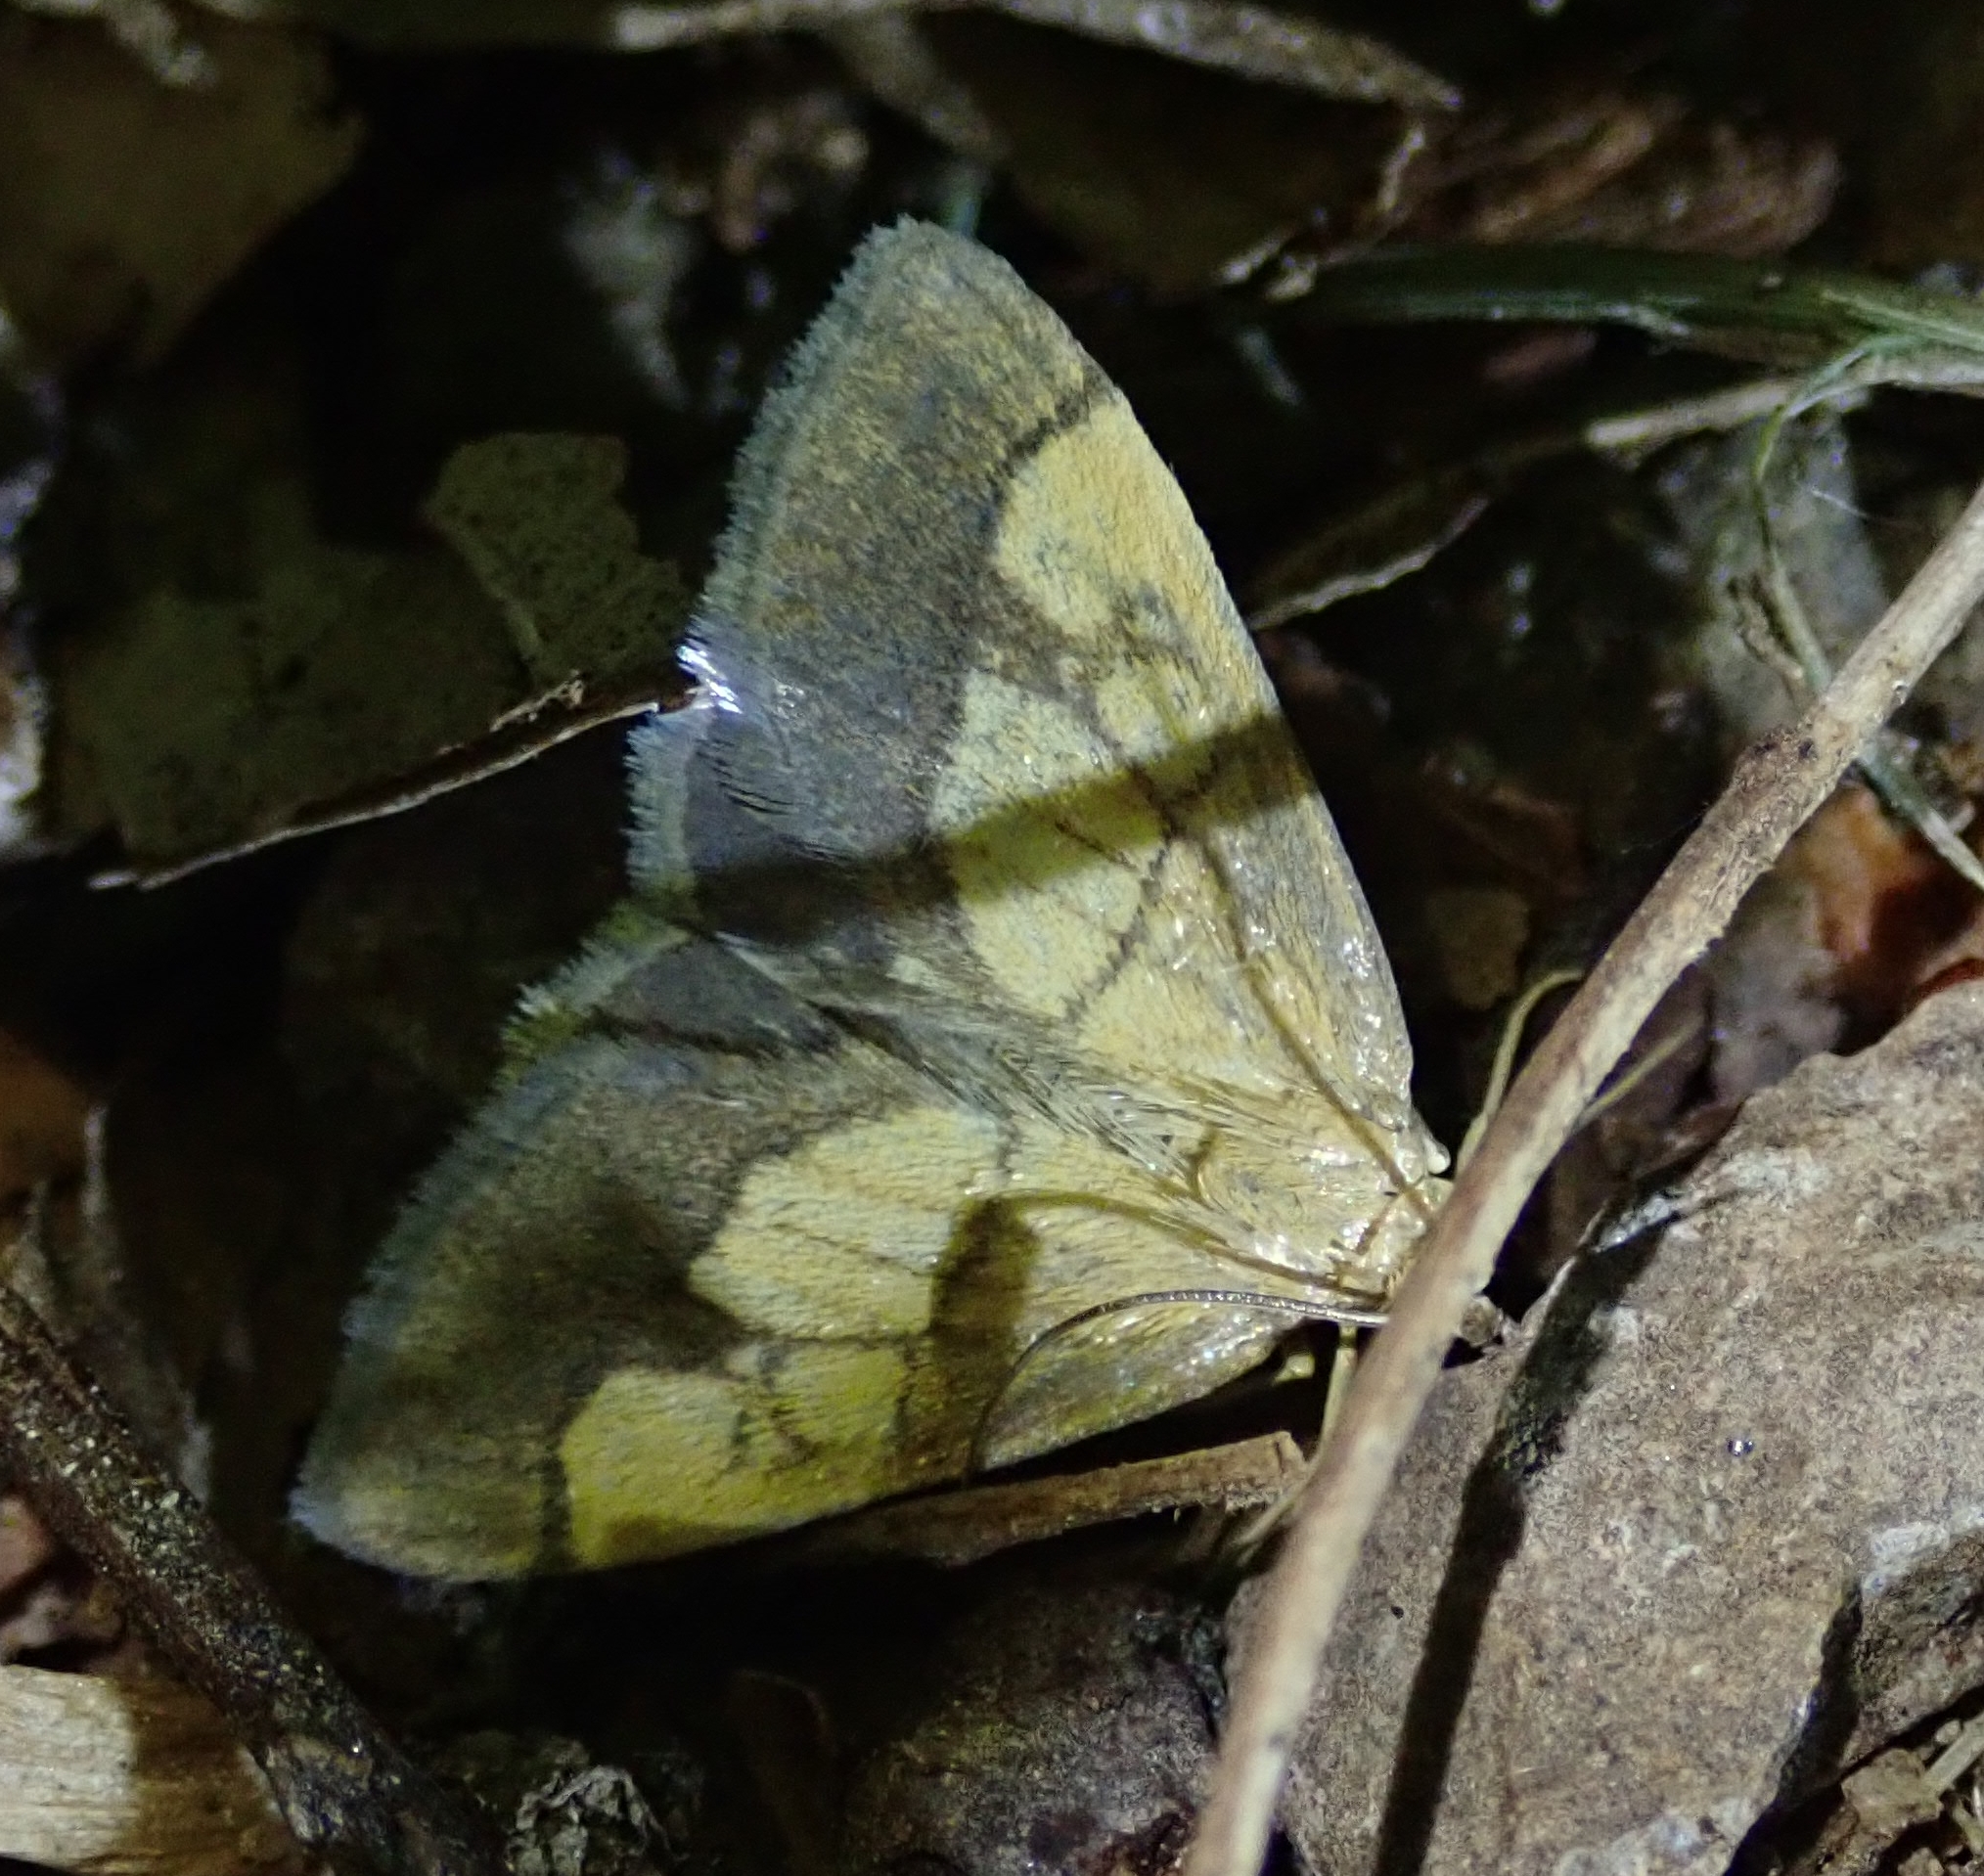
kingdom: Animalia
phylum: Arthropoda
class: Insecta
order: Lepidoptera
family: Crambidae
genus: Evergestis
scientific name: Evergestis limbata
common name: Dark bordered pearl
